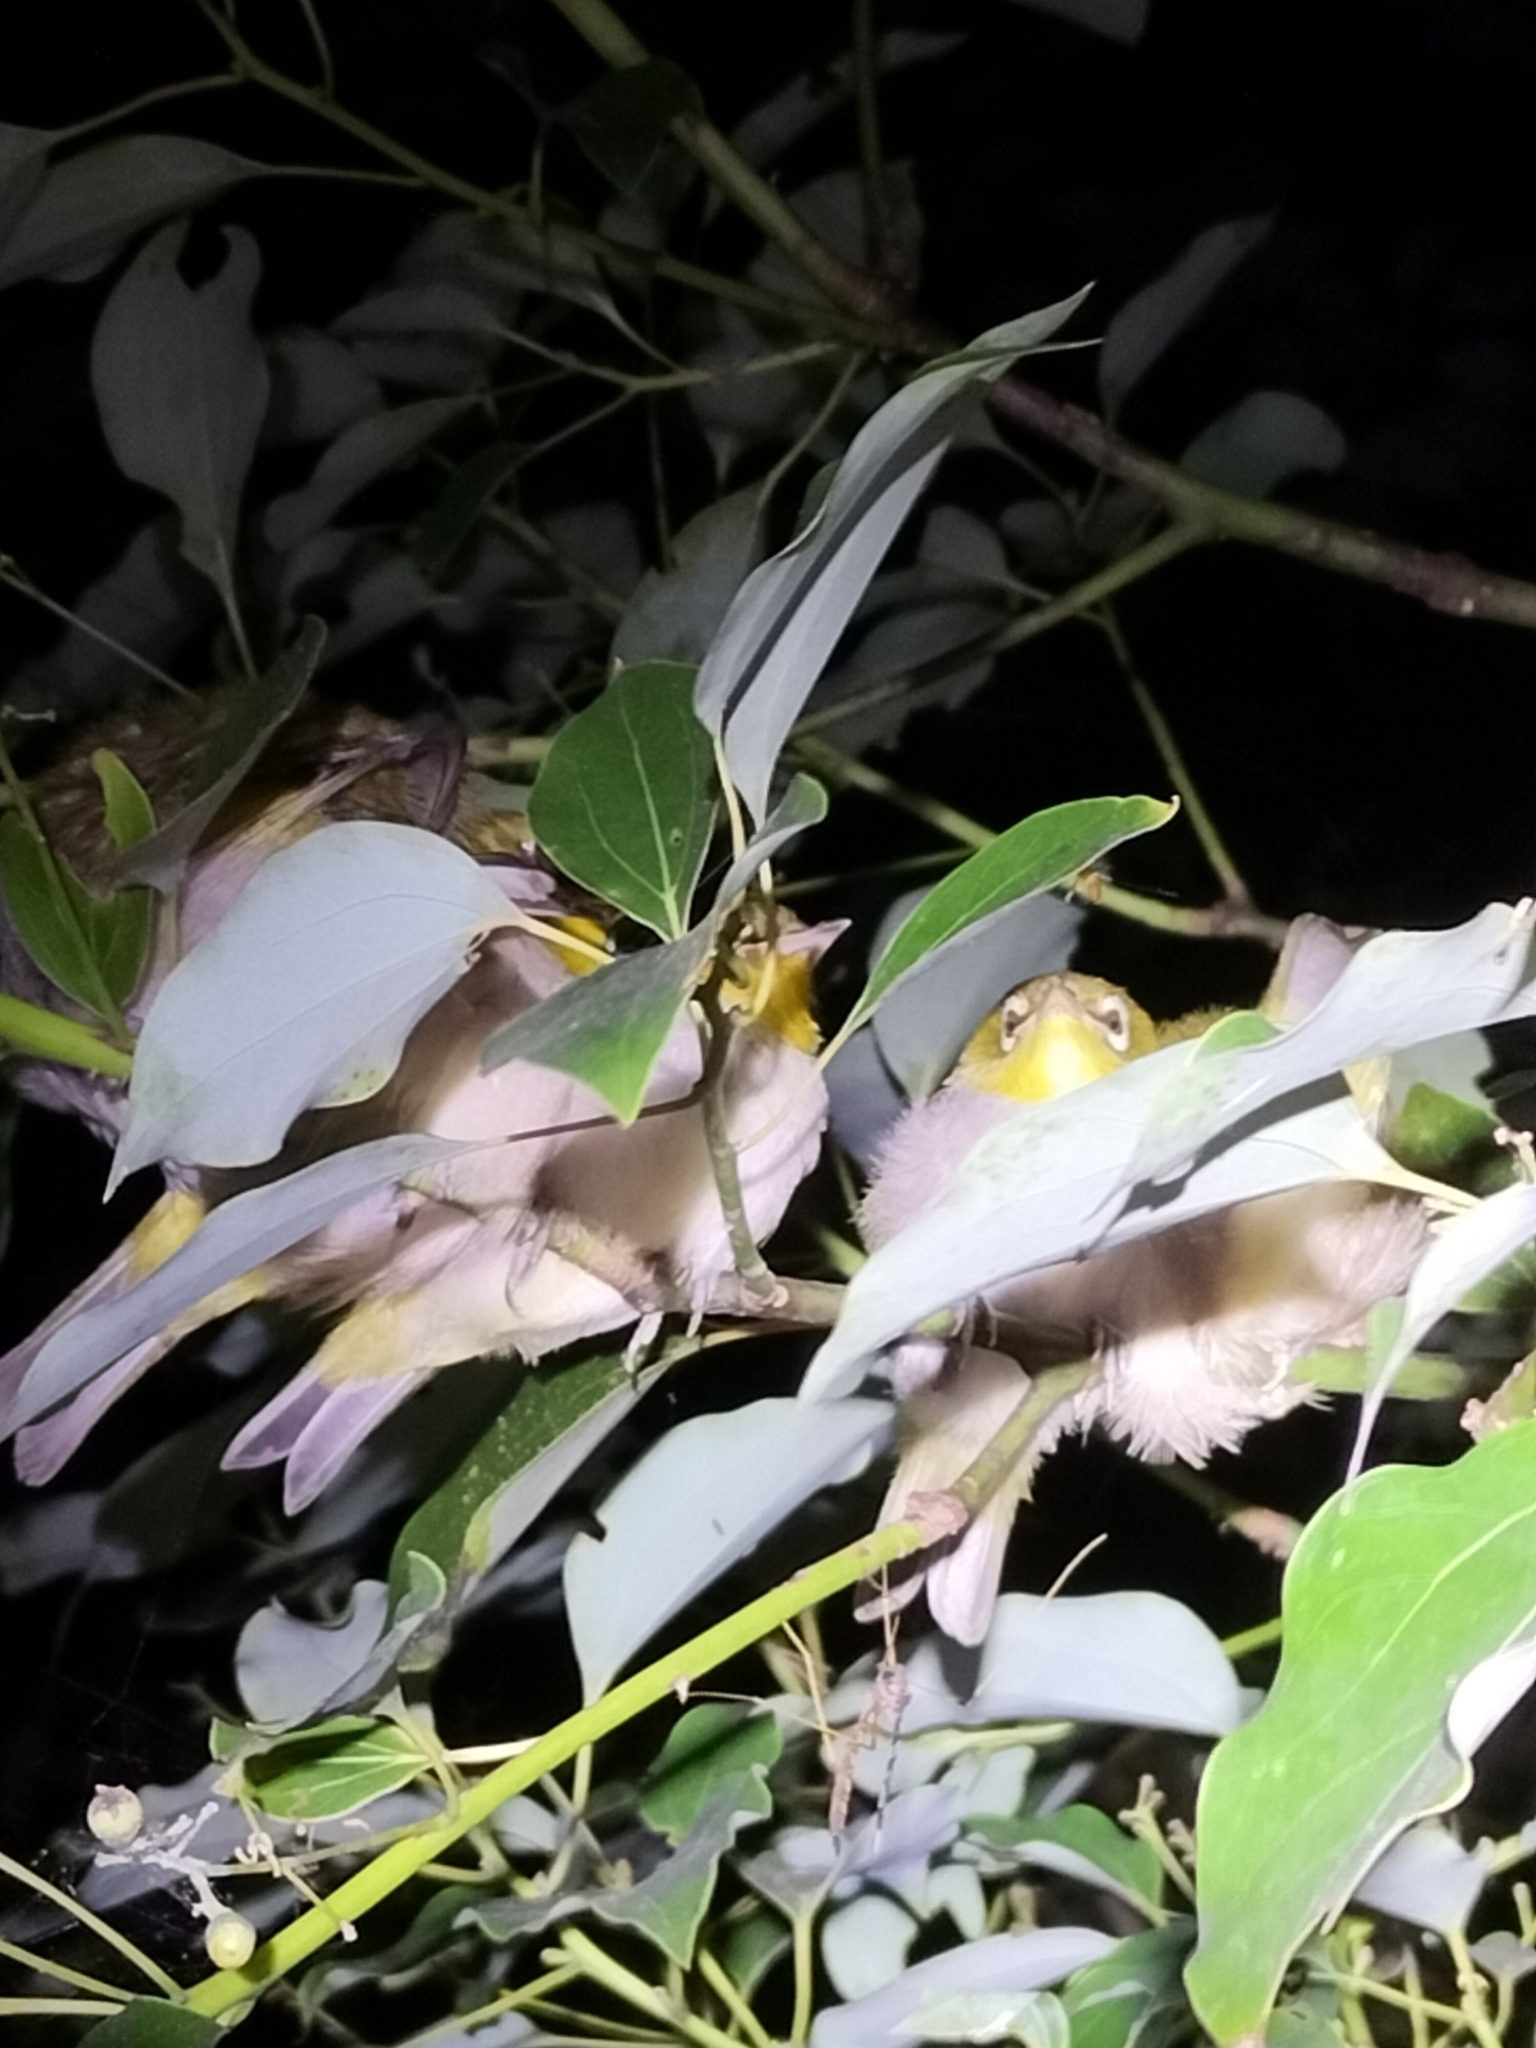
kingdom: Animalia
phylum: Chordata
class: Aves
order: Passeriformes
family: Zosteropidae
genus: Zosterops
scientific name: Zosterops lateralis
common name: Silvereye
